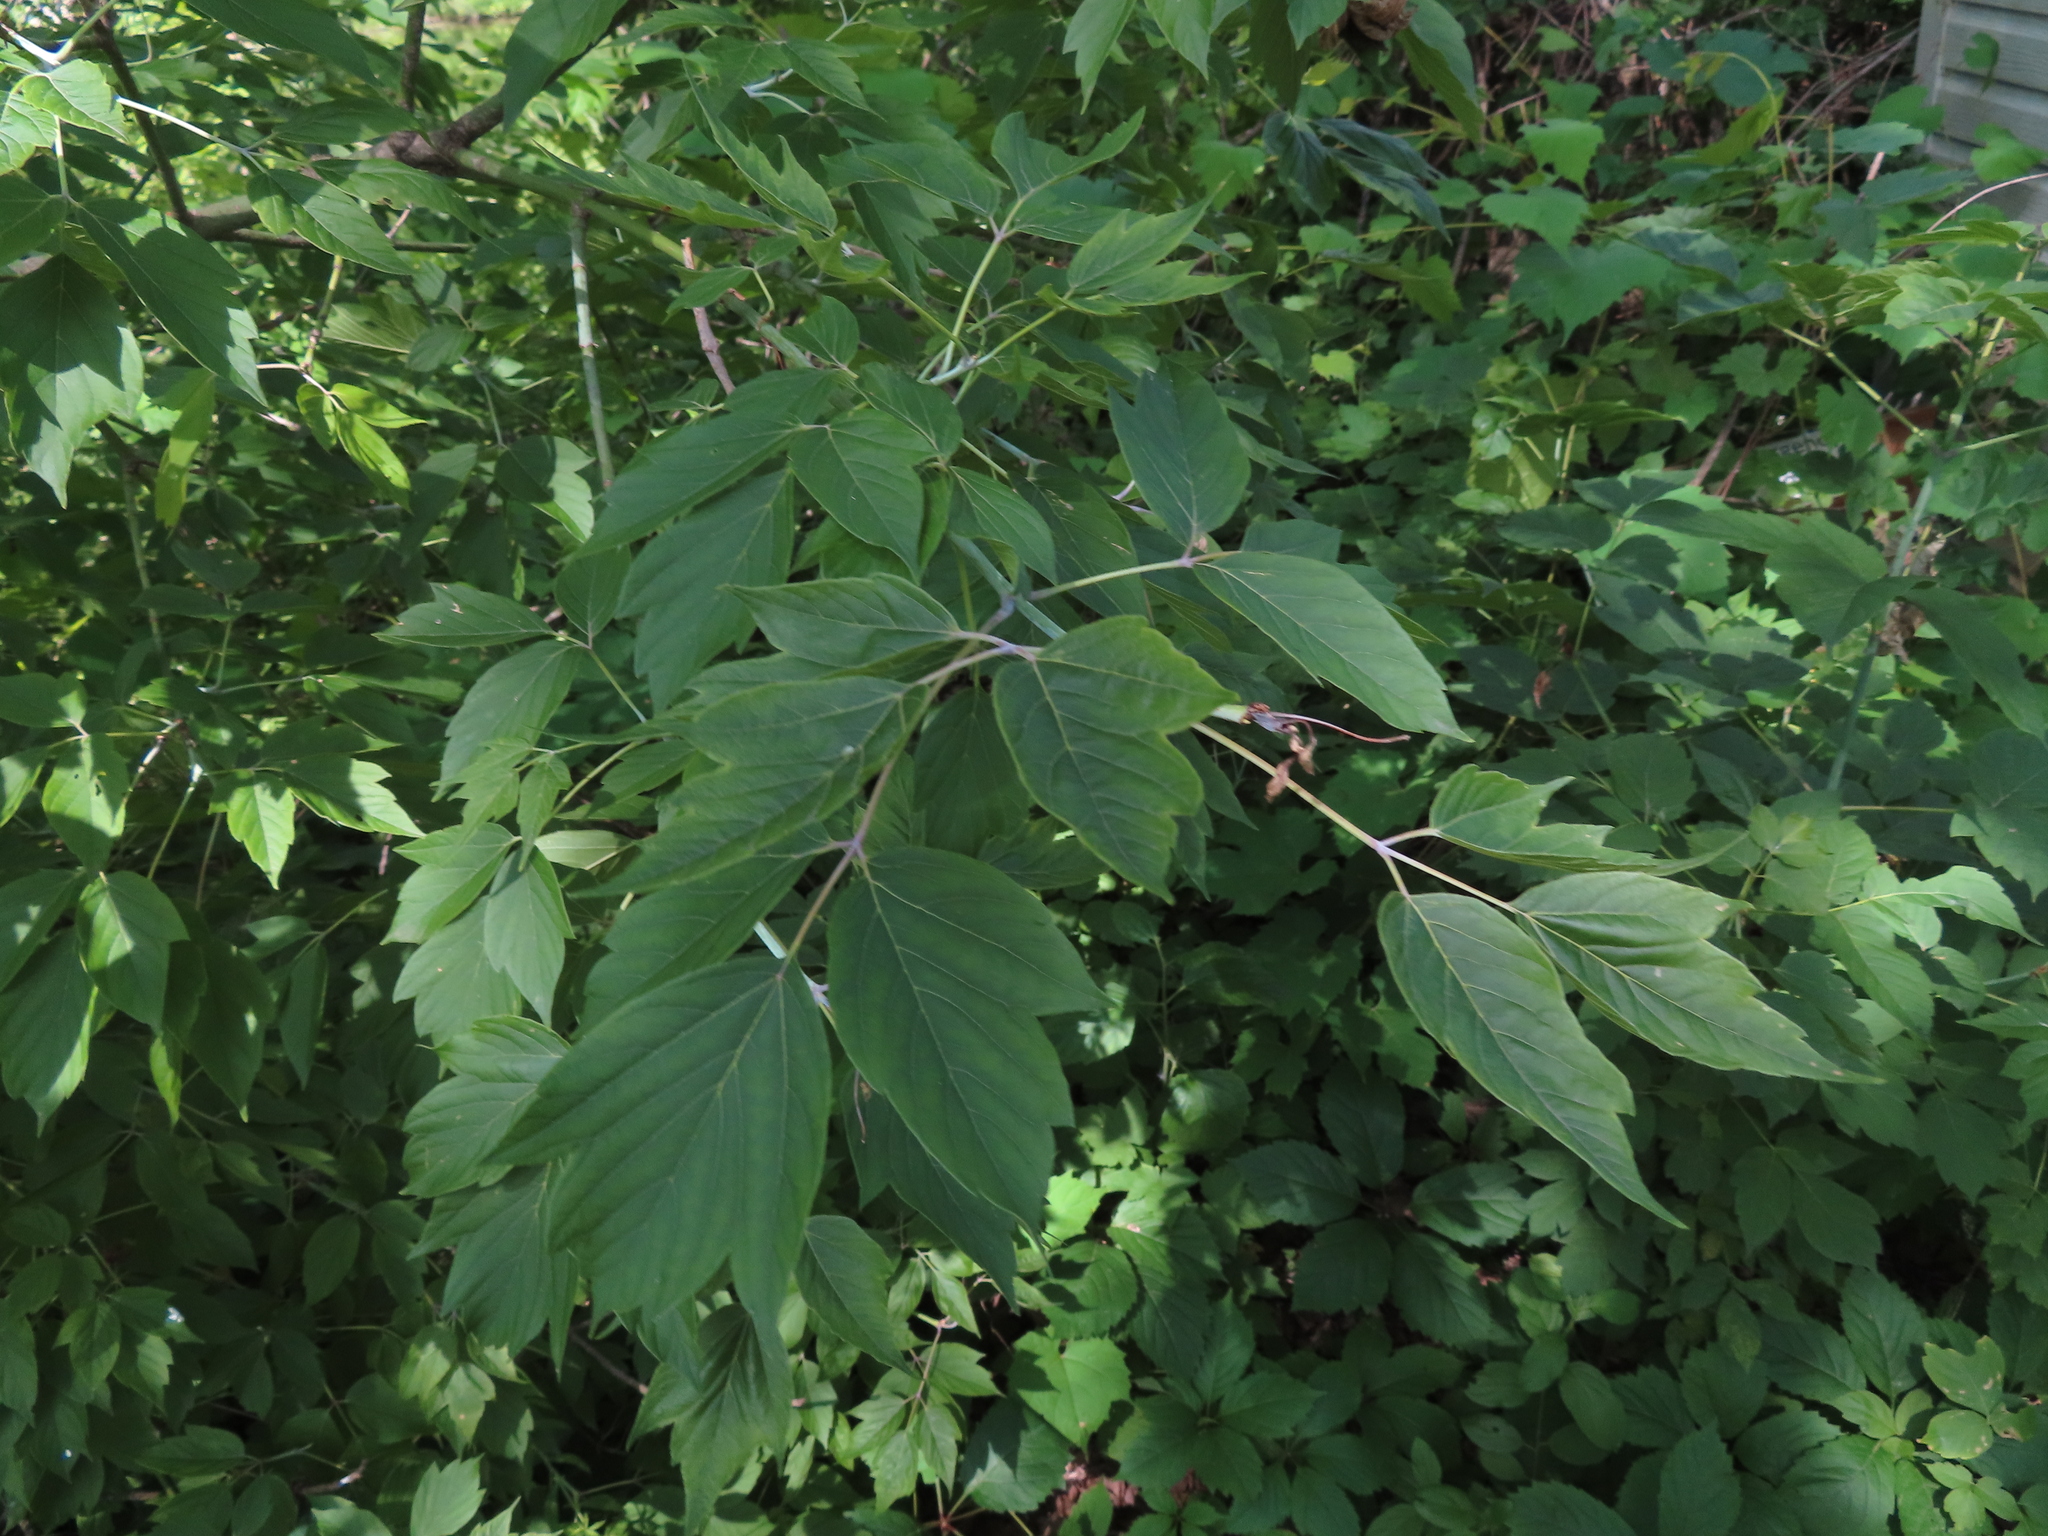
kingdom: Plantae
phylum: Tracheophyta
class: Magnoliopsida
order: Sapindales
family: Sapindaceae
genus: Acer
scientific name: Acer negundo
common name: Ashleaf maple
